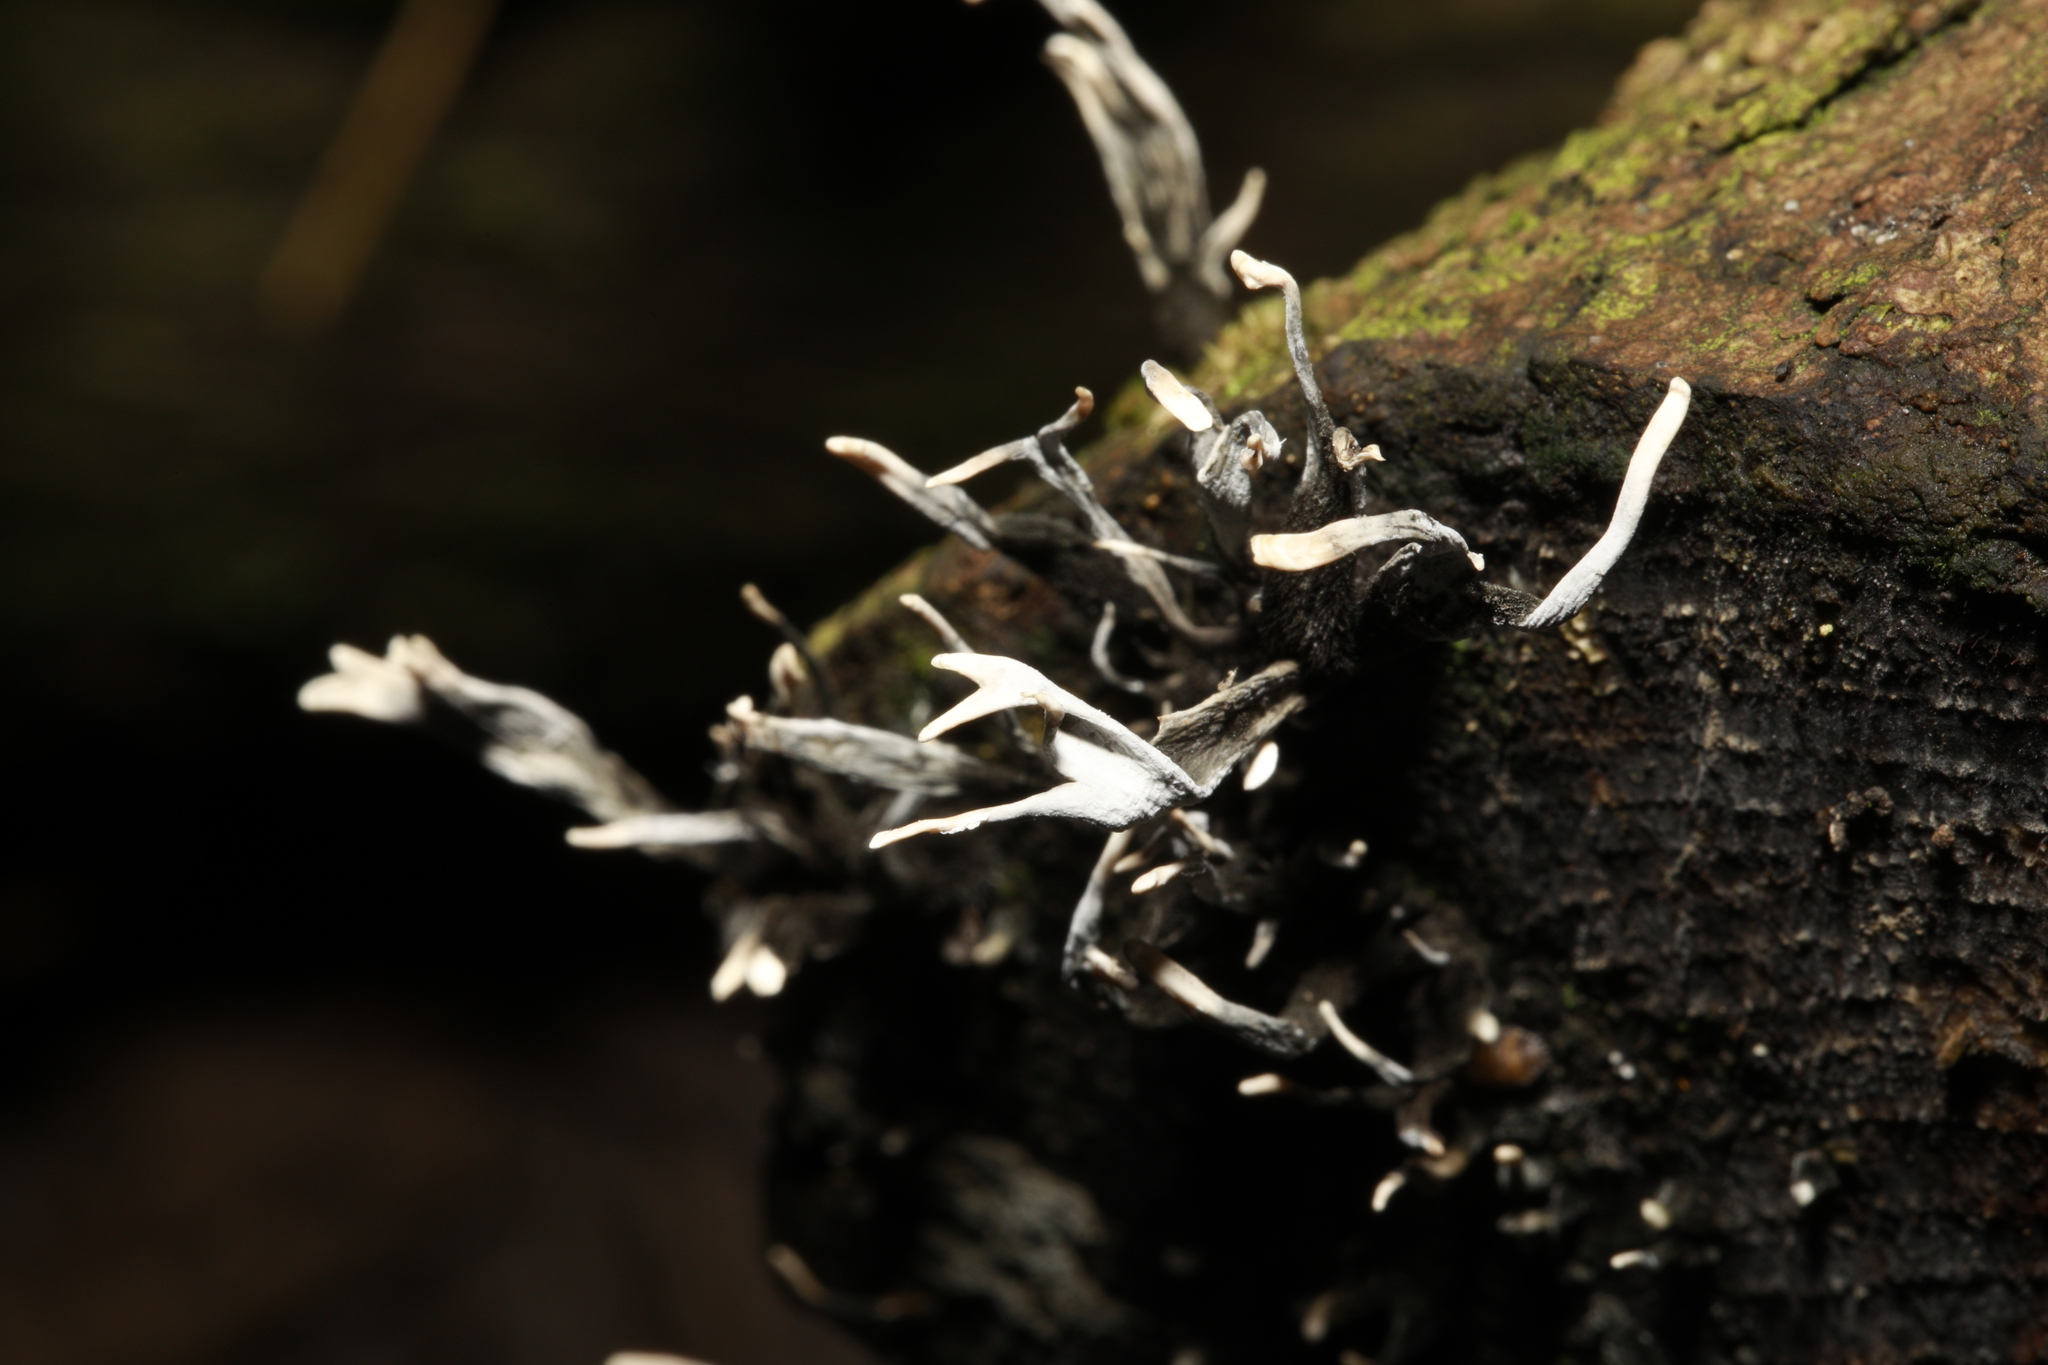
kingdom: Fungi
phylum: Ascomycota
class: Sordariomycetes
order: Xylariales
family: Xylariaceae
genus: Xylaria
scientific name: Xylaria hypoxylon
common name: Candle-snuff fungus
